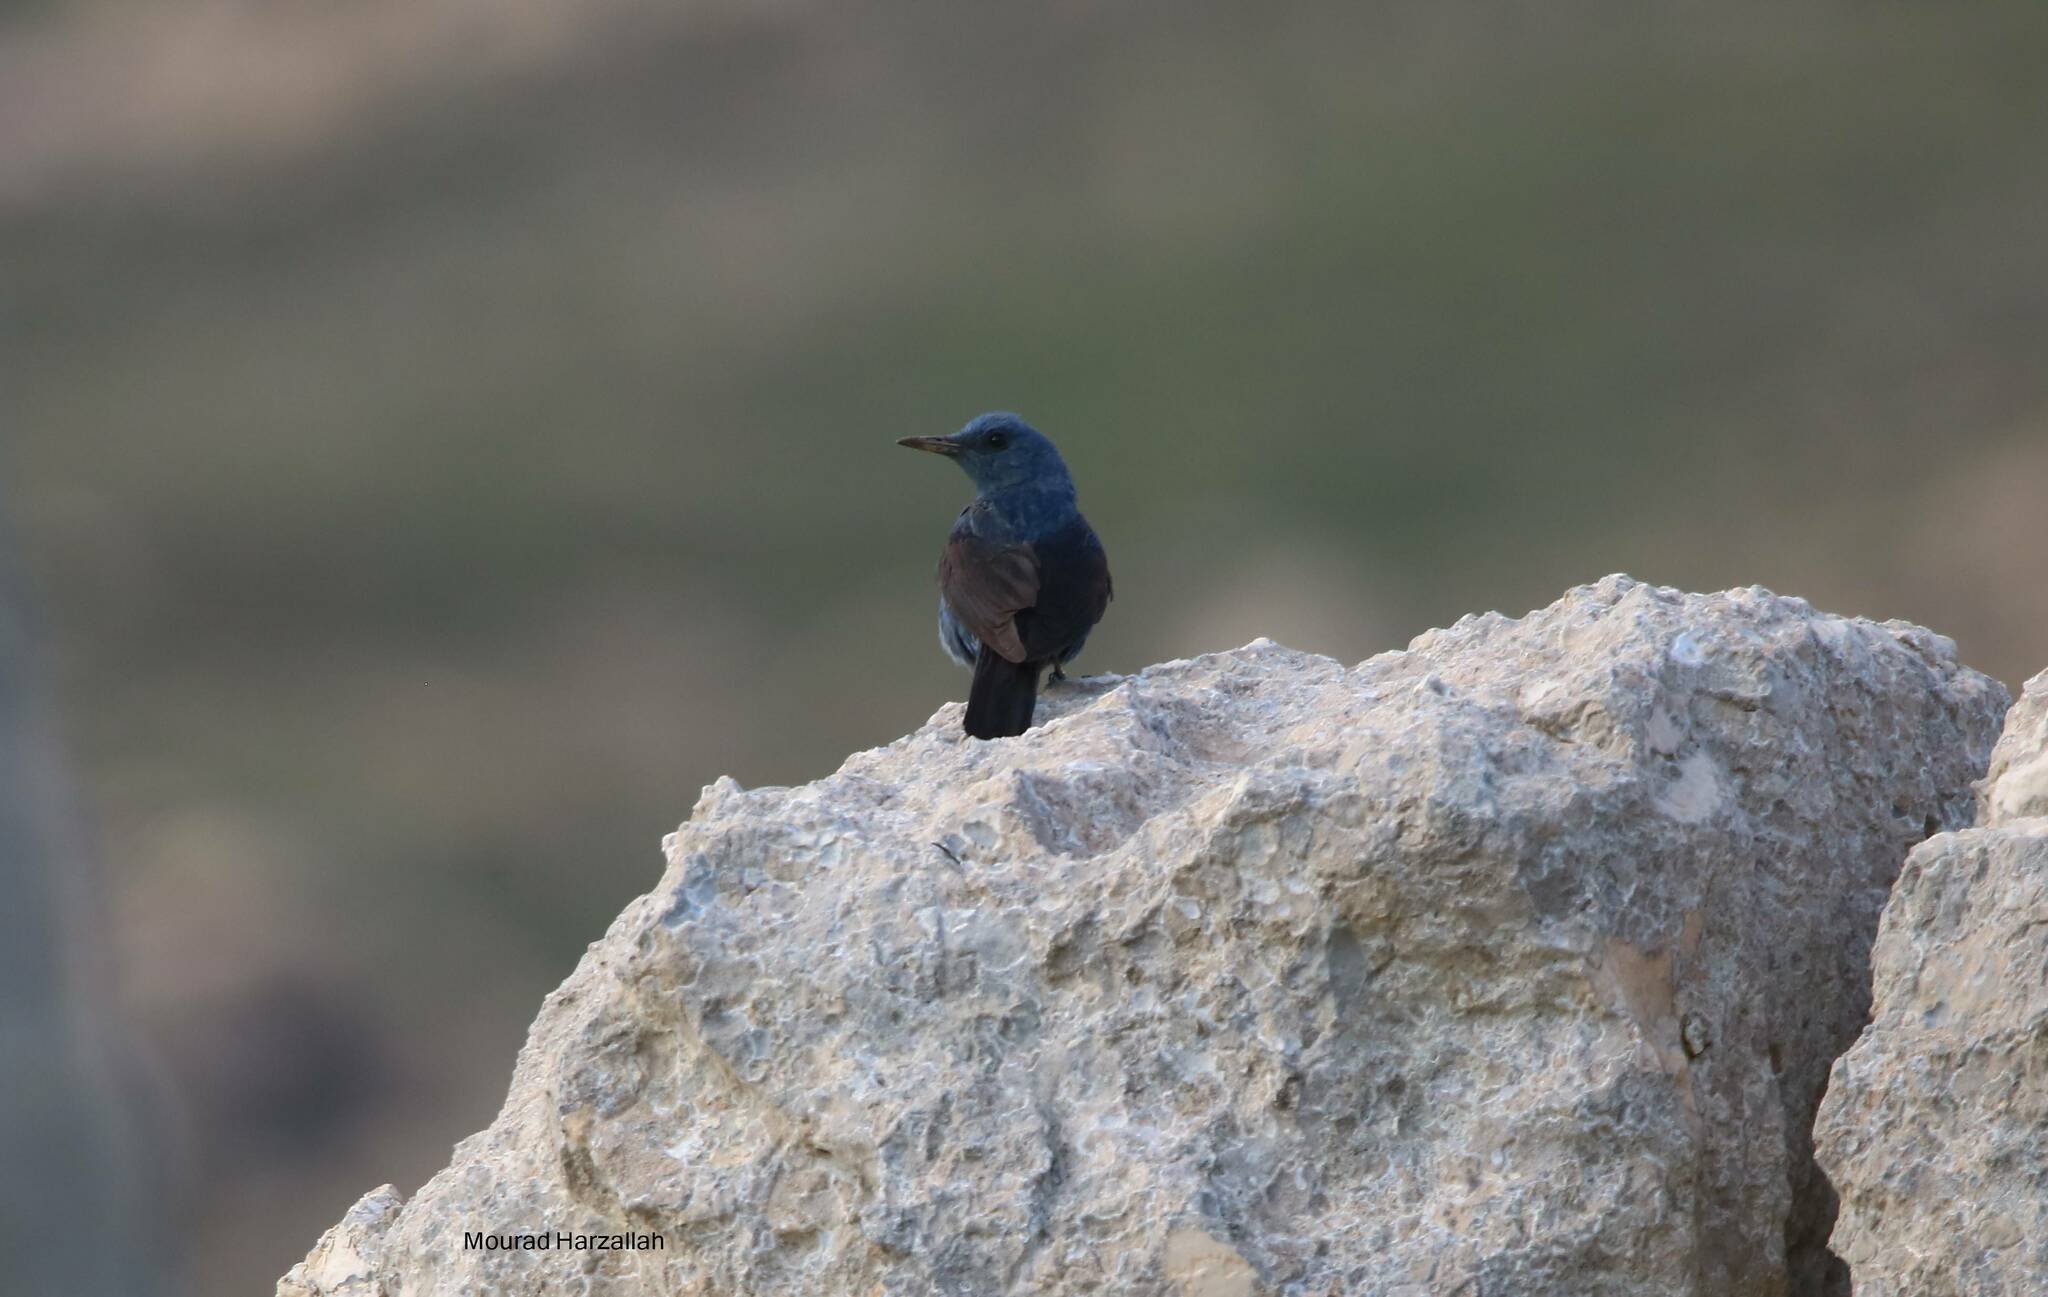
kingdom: Animalia
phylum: Chordata
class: Aves
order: Passeriformes
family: Muscicapidae
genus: Monticola
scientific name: Monticola solitarius
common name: Blue rock thrush
